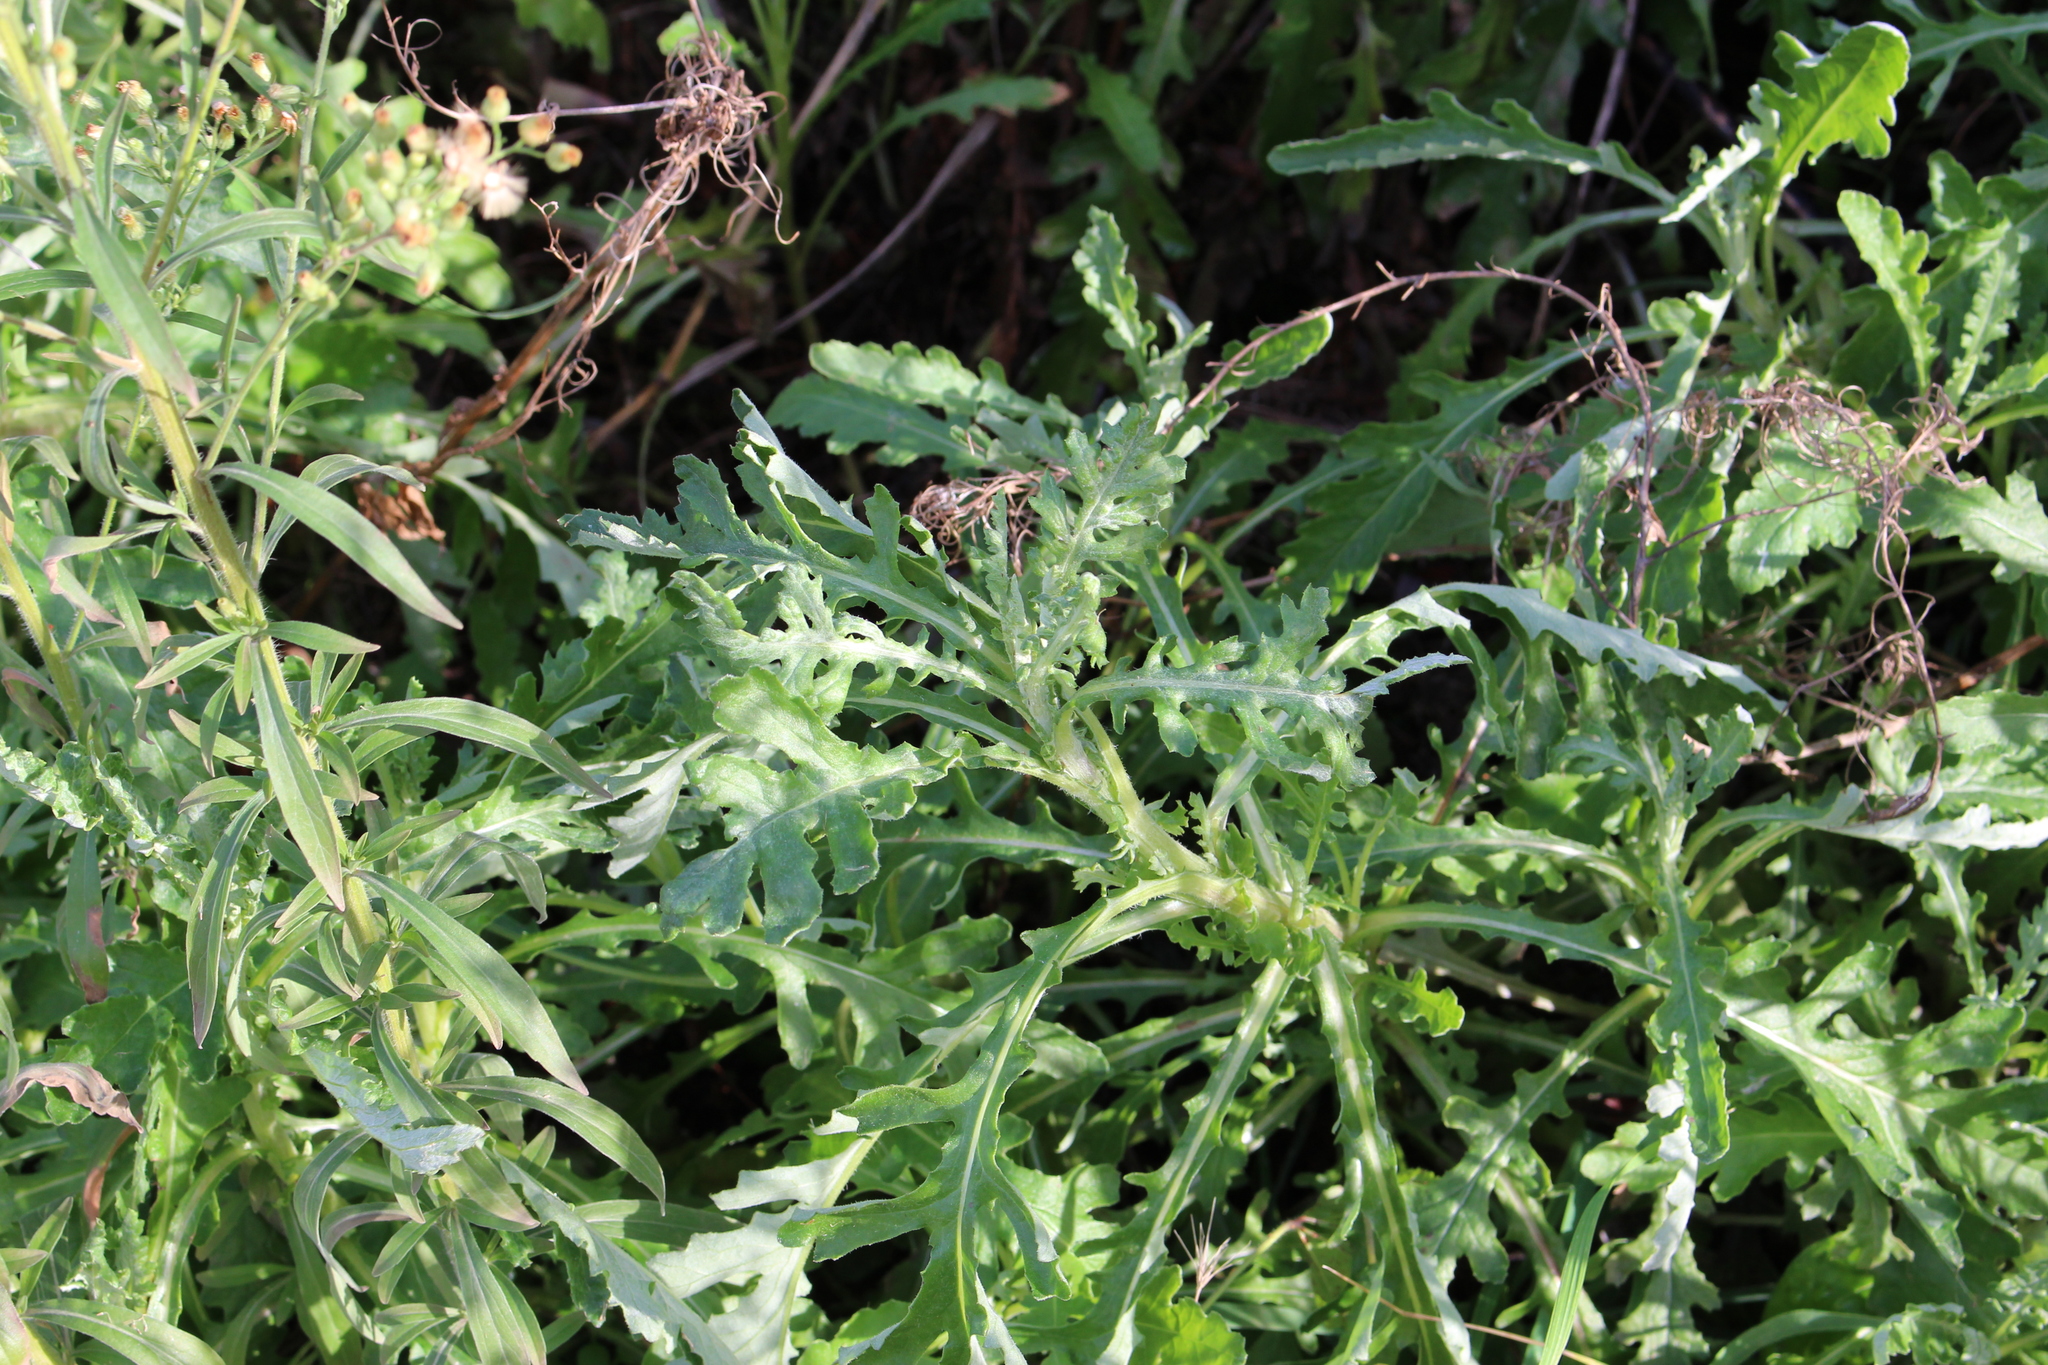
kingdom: Plantae
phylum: Tracheophyta
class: Magnoliopsida
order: Asterales
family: Asteraceae
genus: Senecio
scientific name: Senecio glomeratus
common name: Cutleaf burnweed
